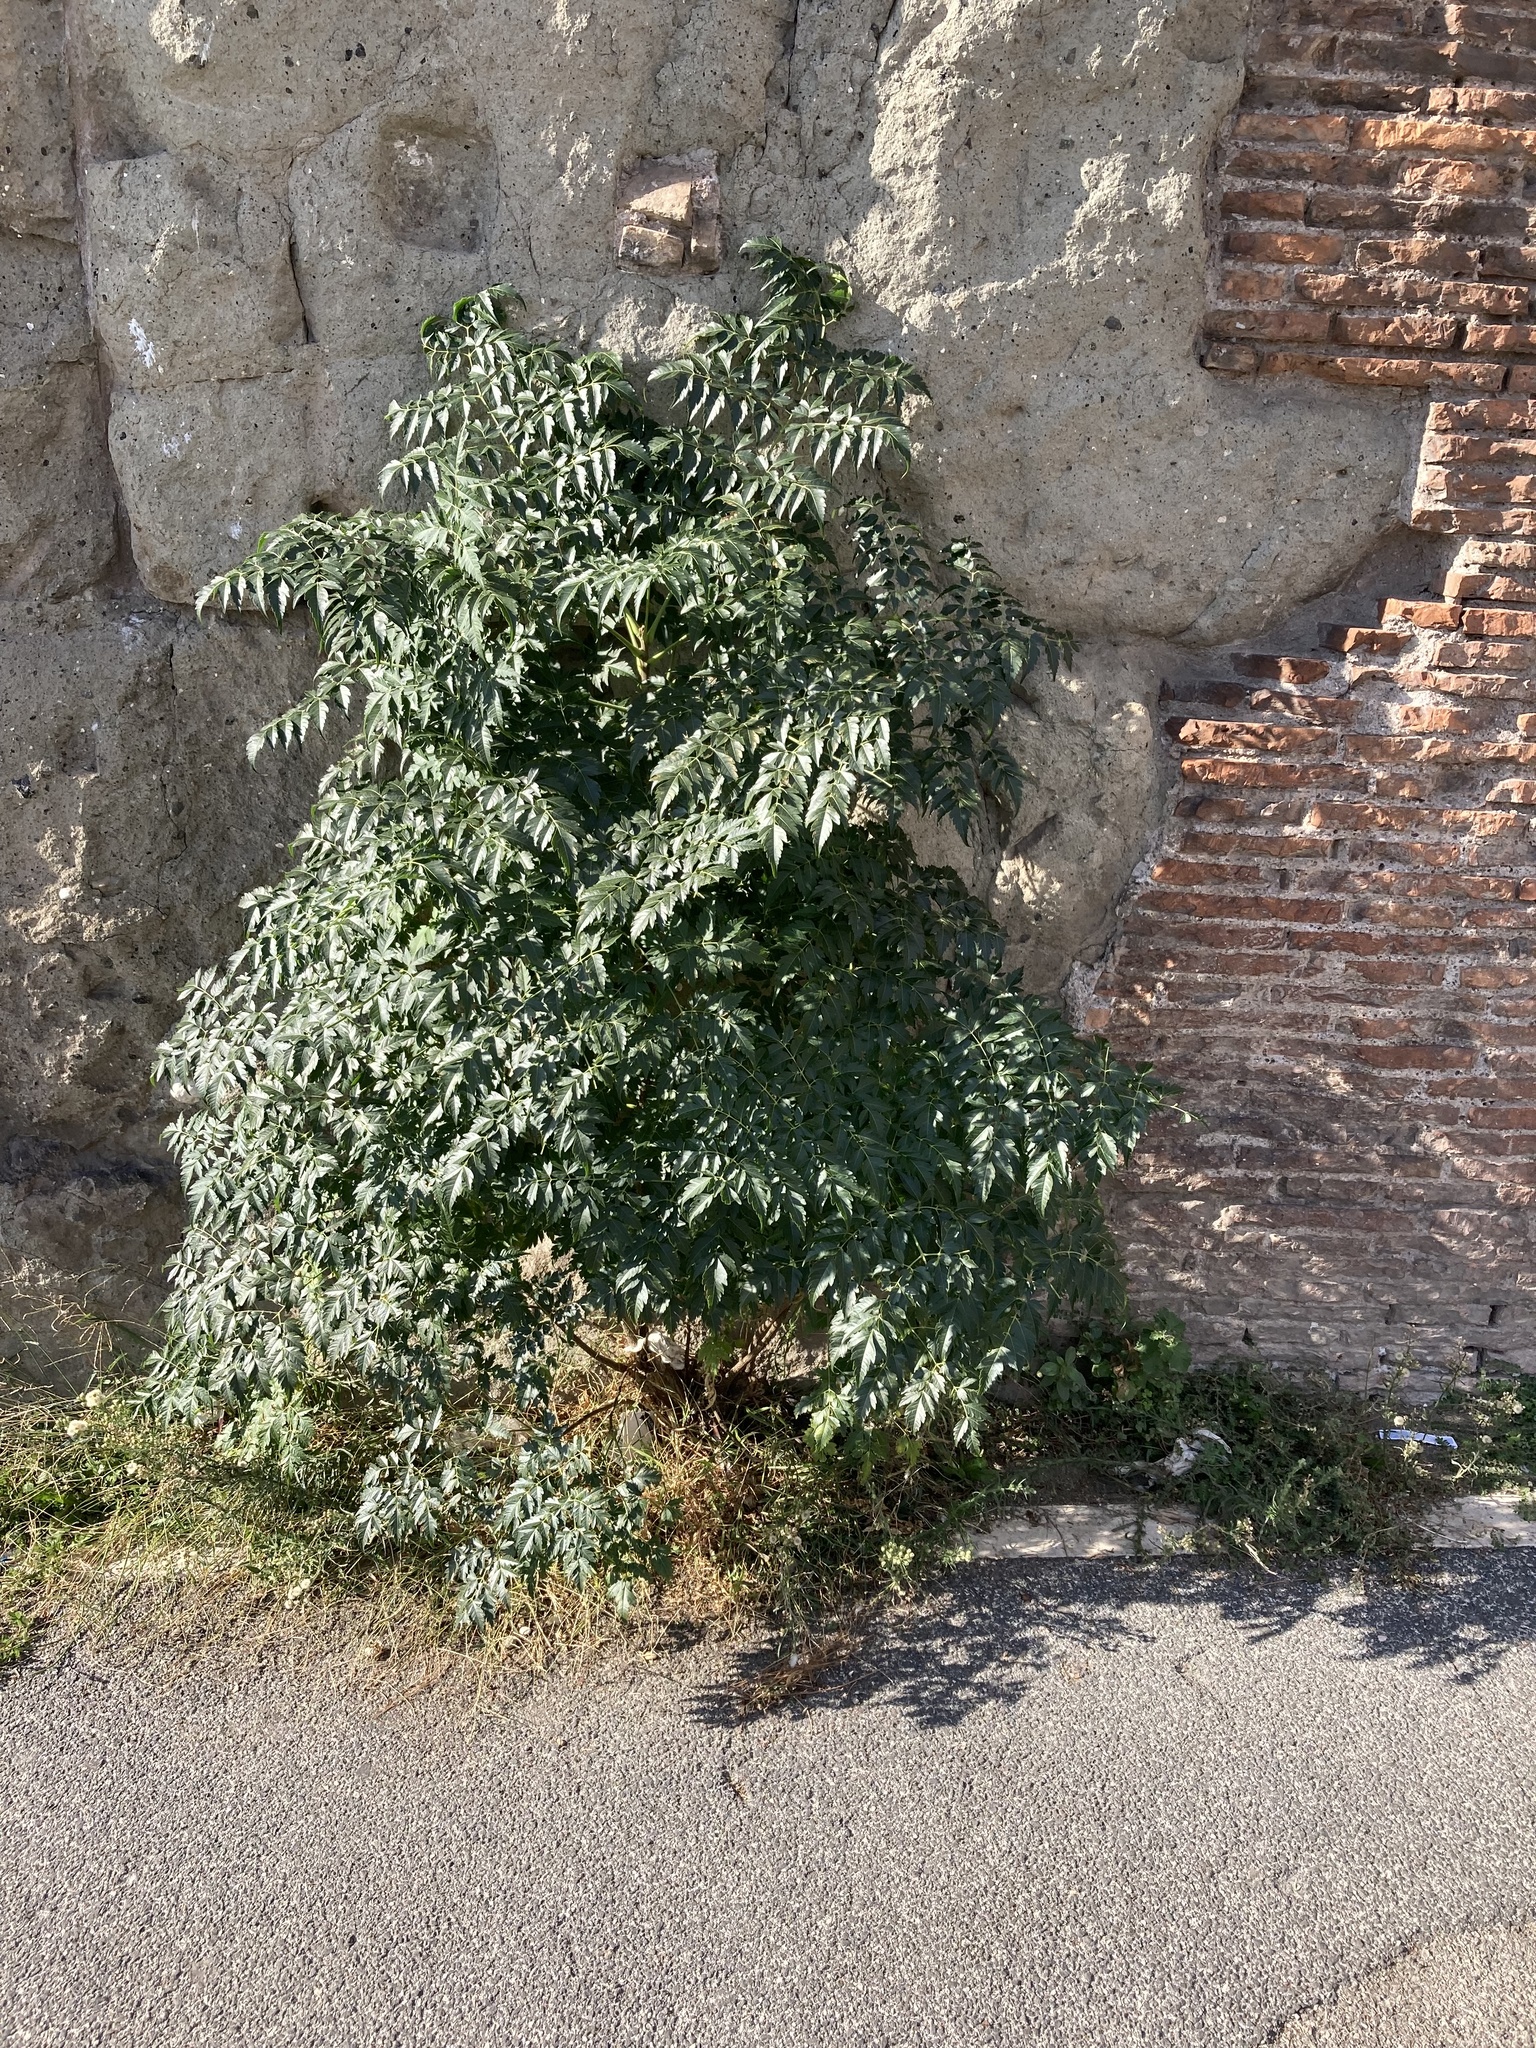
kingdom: Plantae
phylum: Tracheophyta
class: Magnoliopsida
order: Sapindales
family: Meliaceae
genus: Melia
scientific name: Melia azedarach
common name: Chinaberrytree
